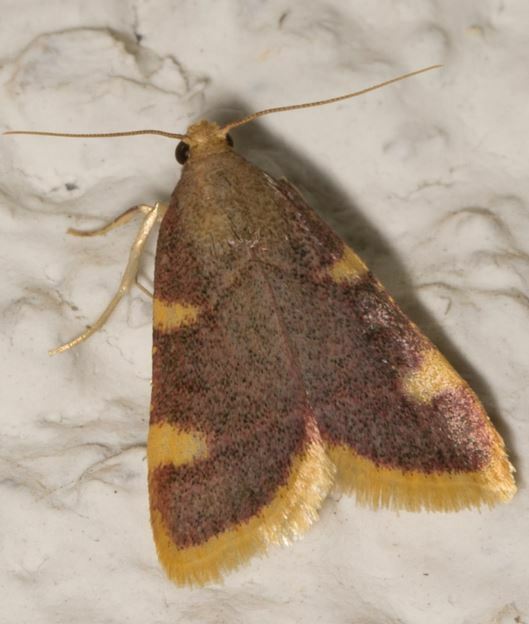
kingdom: Animalia
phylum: Arthropoda
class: Insecta
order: Lepidoptera
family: Pyralidae
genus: Hypsopygia
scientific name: Hypsopygia costalis
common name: Gold triangle
